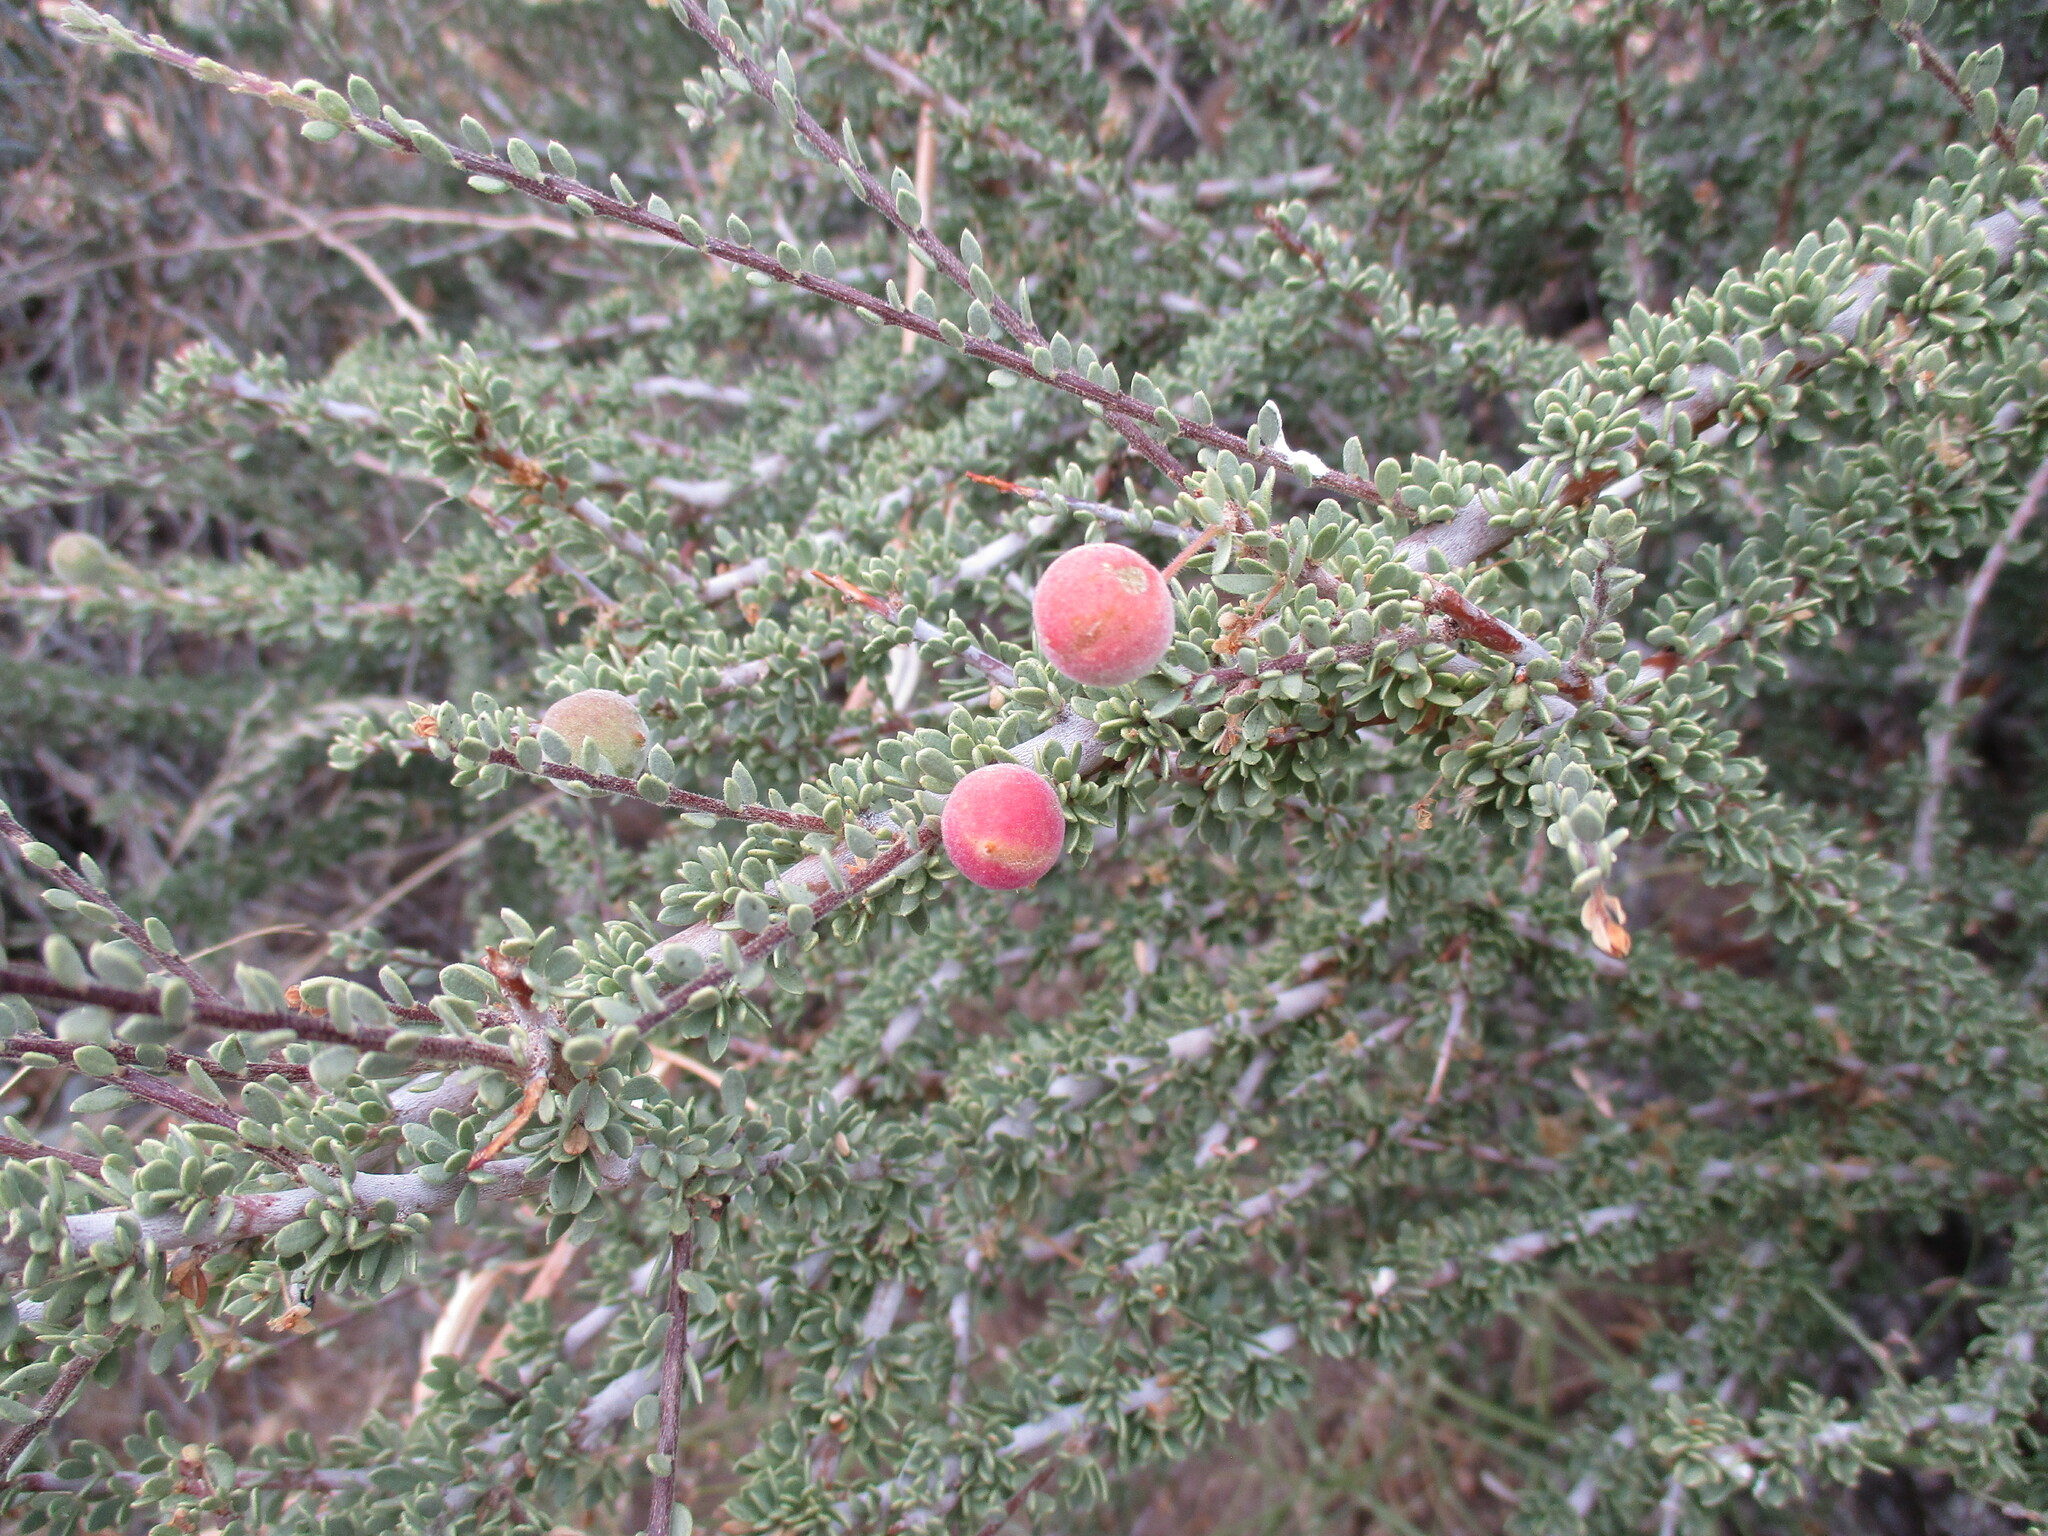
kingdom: Plantae
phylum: Tracheophyta
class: Magnoliopsida
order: Brassicales
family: Capparaceae
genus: Boscia
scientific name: Boscia foetida
